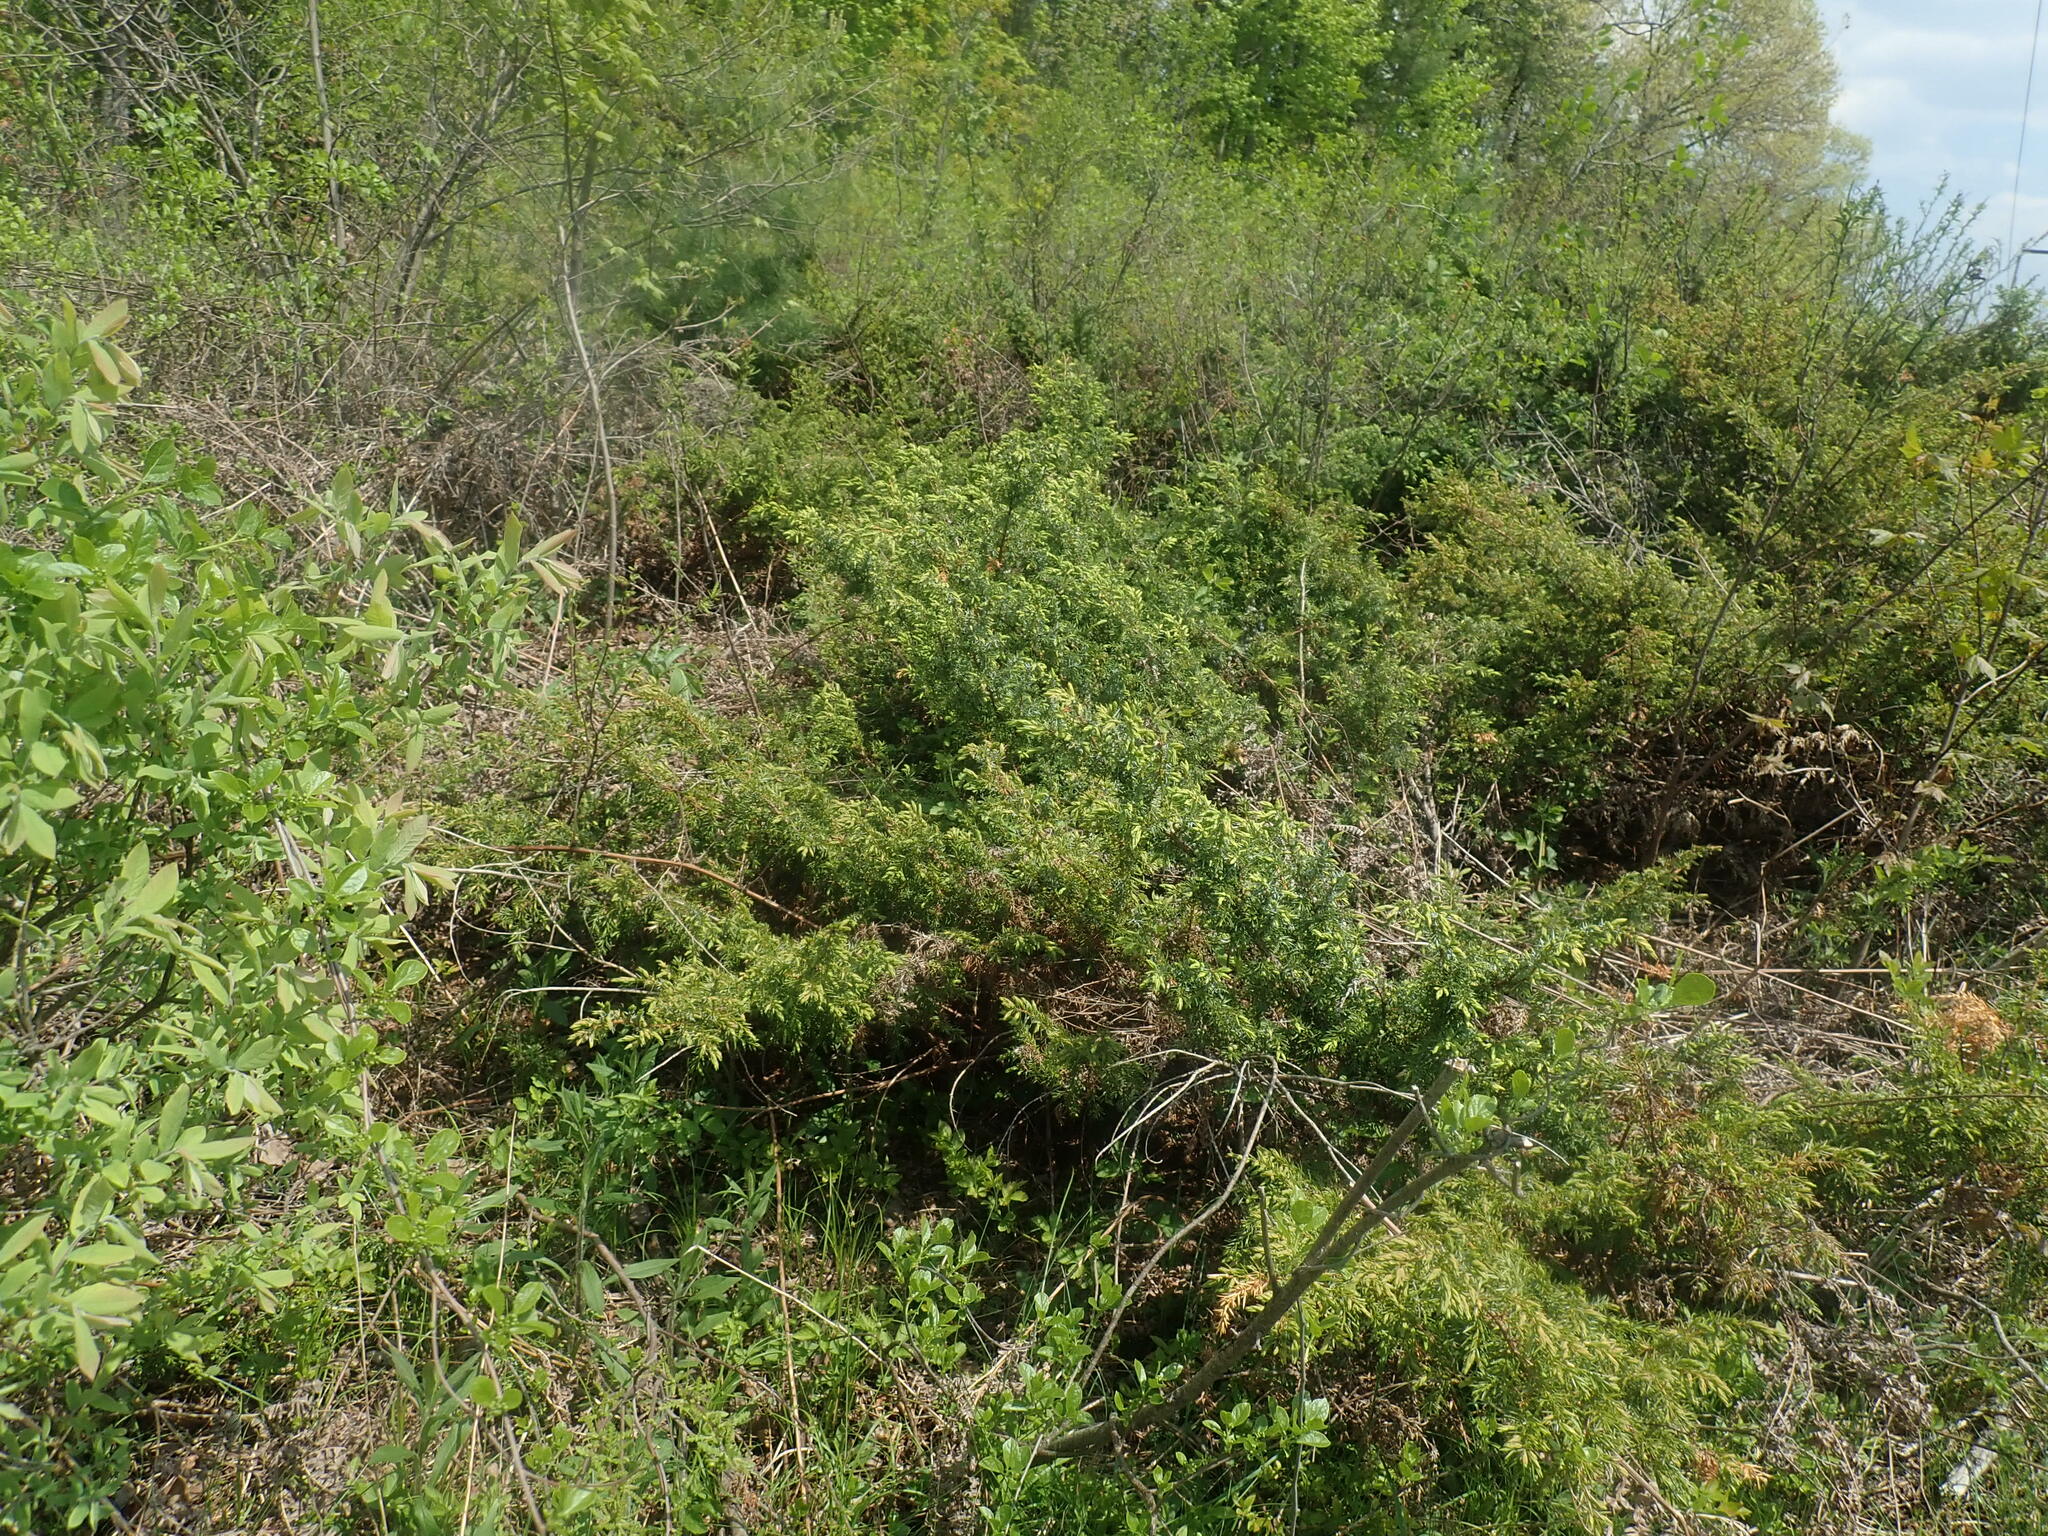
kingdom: Plantae
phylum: Tracheophyta
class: Pinopsida
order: Pinales
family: Cupressaceae
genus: Juniperus
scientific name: Juniperus communis
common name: Common juniper
